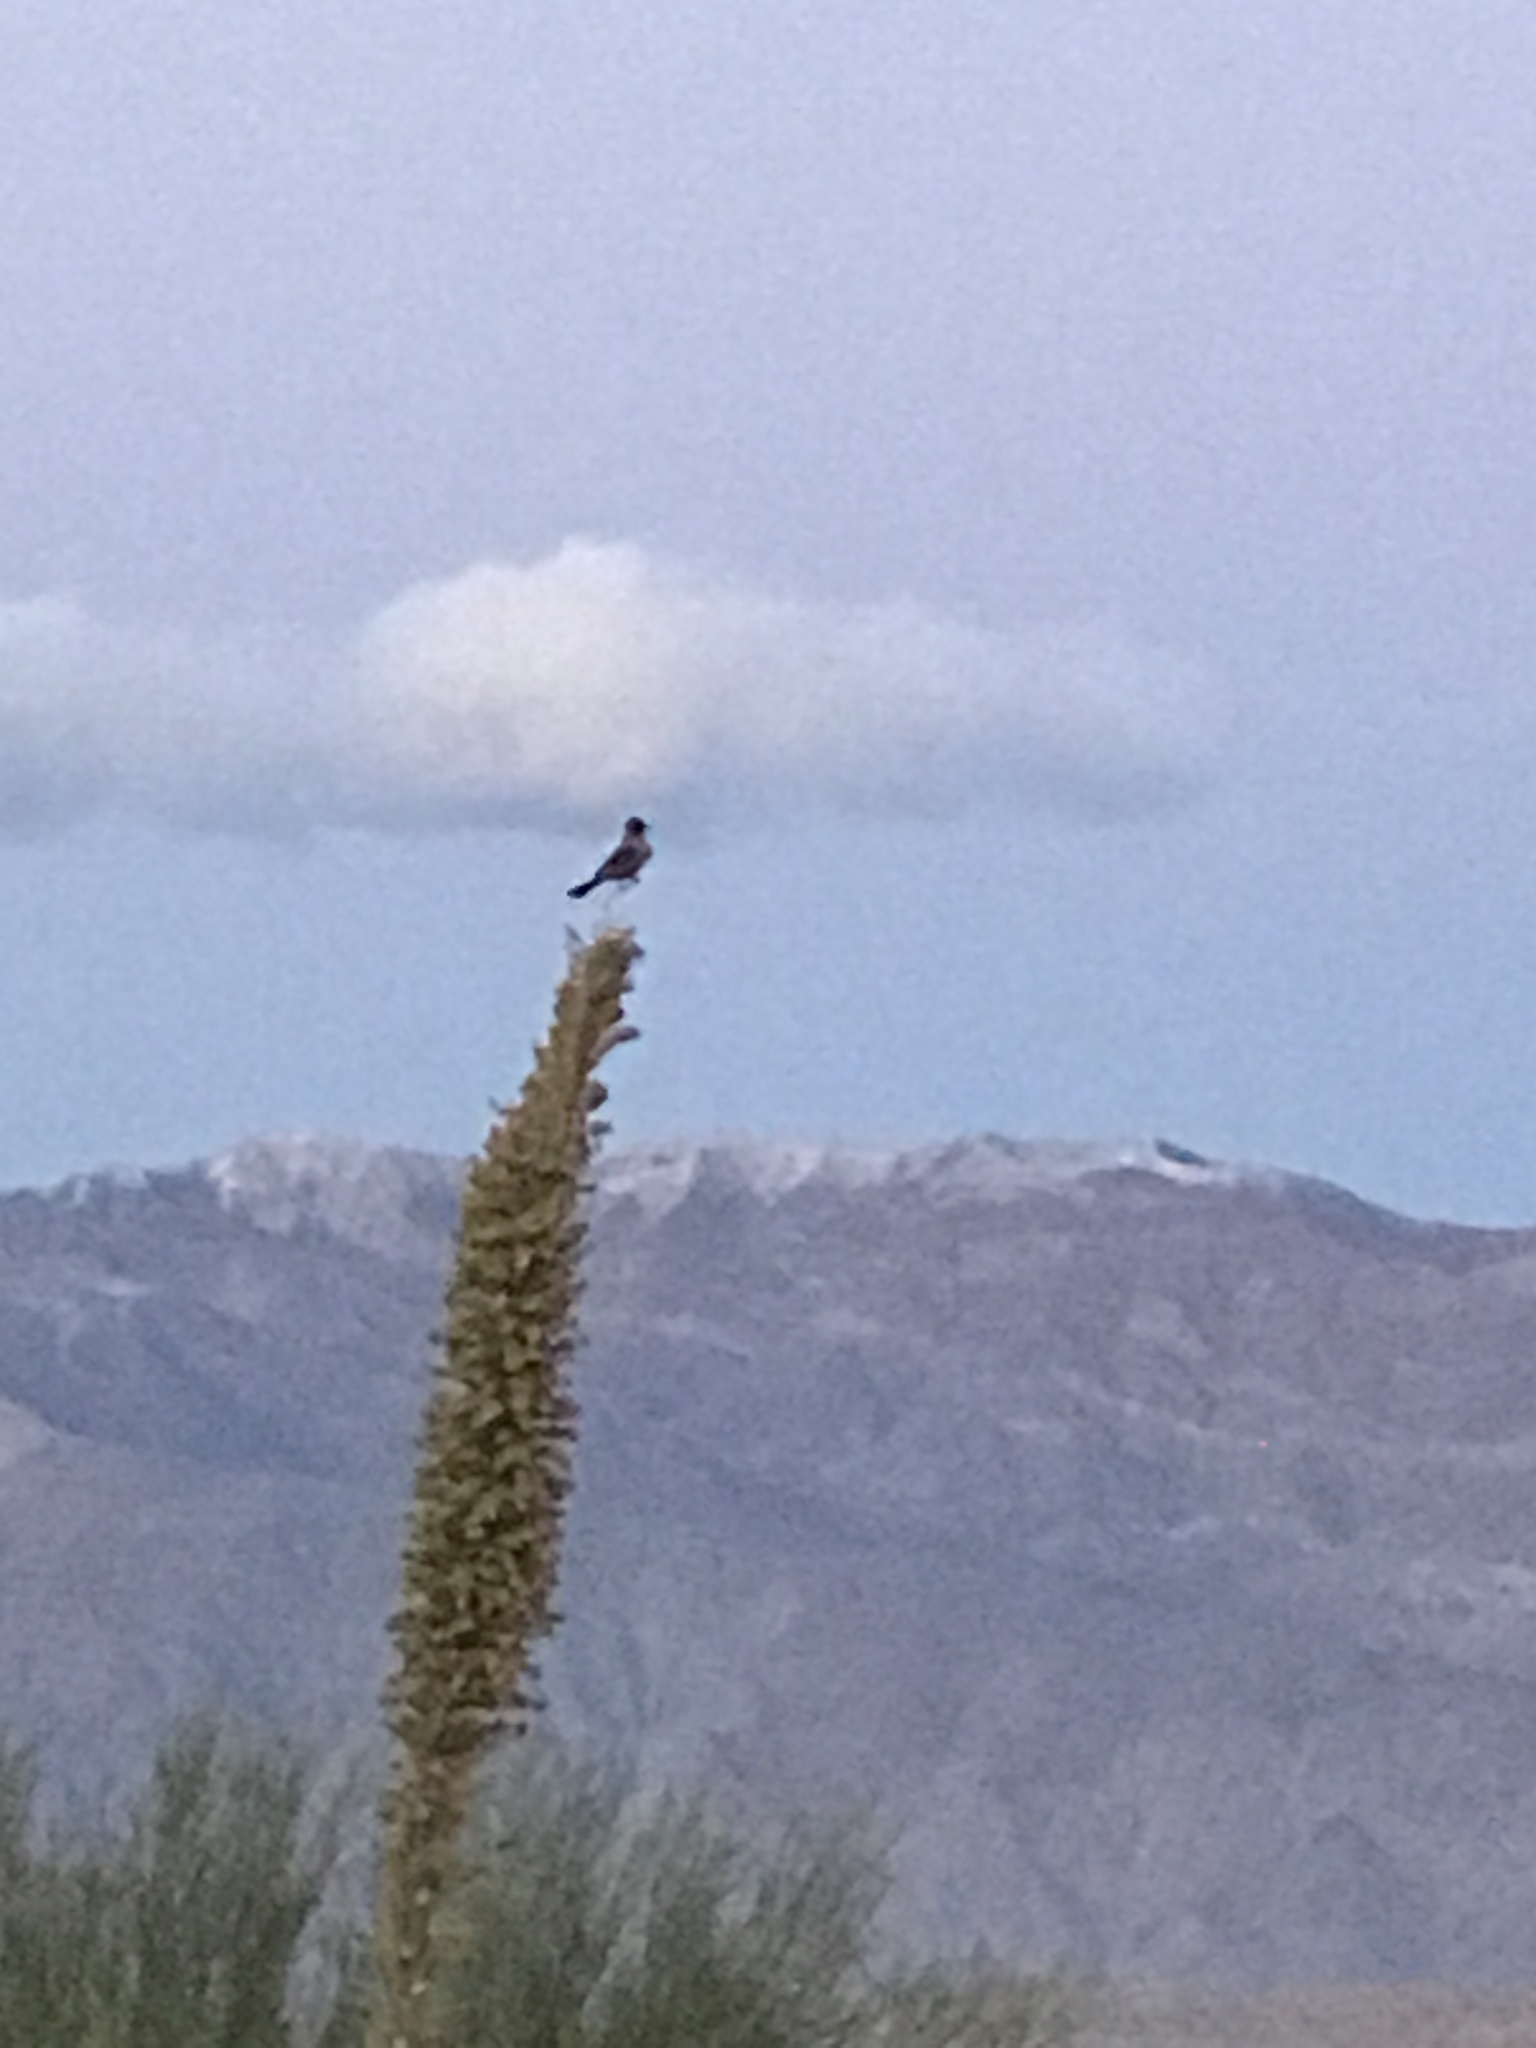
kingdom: Animalia
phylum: Chordata
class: Aves
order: Passeriformes
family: Tyrannidae
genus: Sayornis
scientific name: Sayornis saya
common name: Say's phoebe
